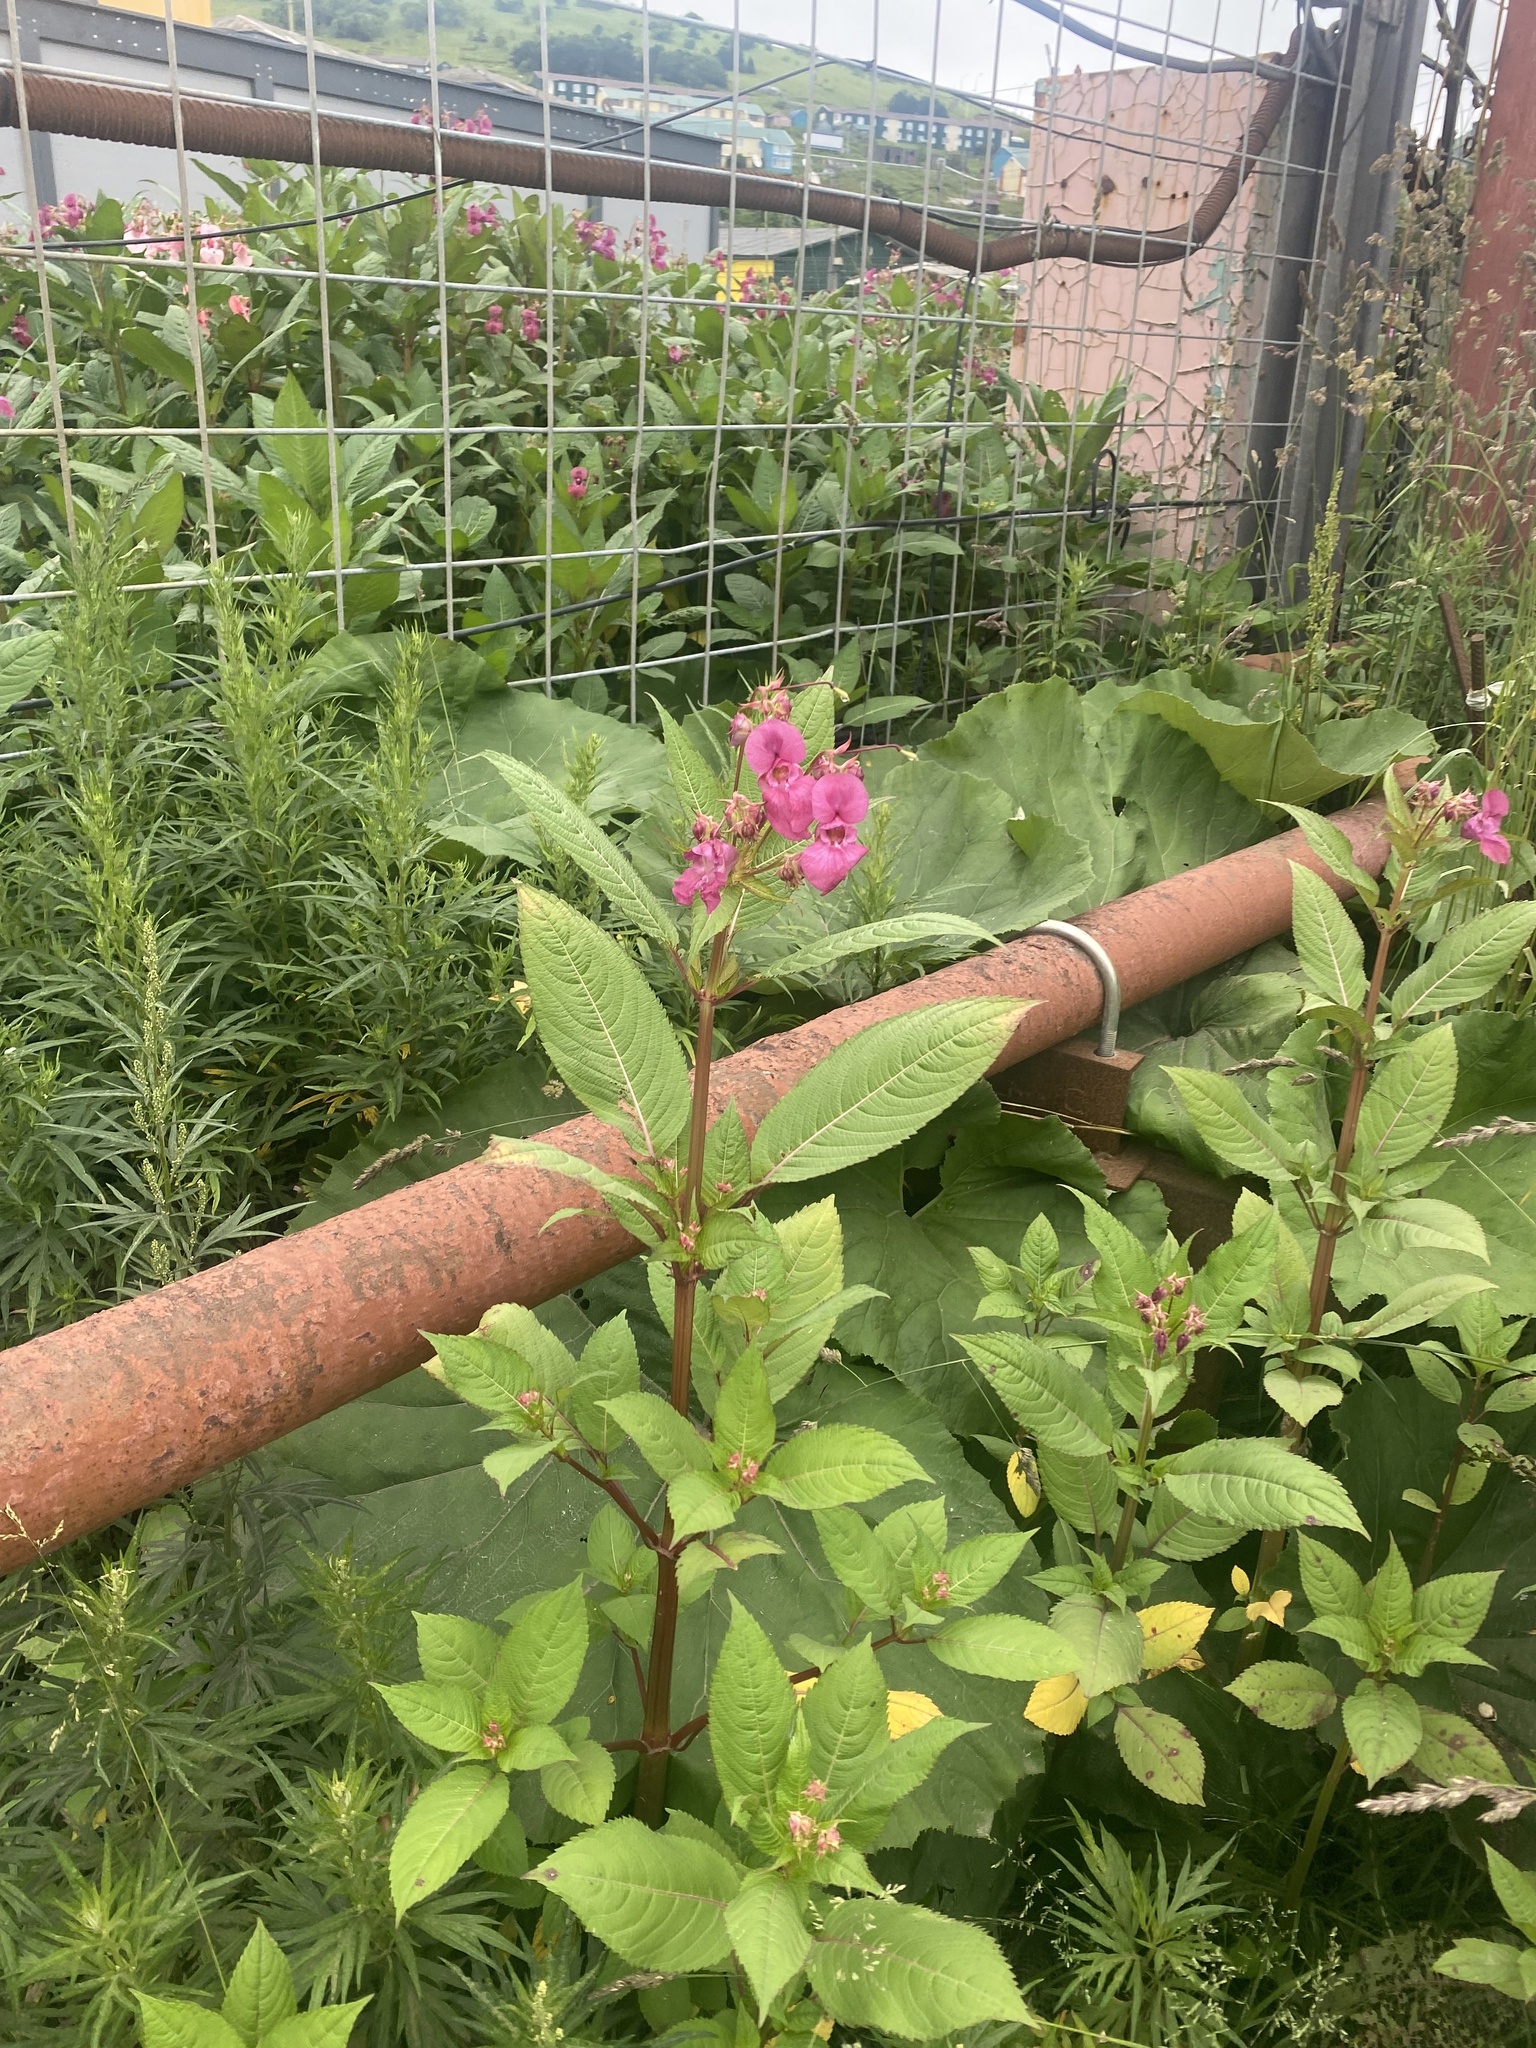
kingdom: Plantae
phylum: Tracheophyta
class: Magnoliopsida
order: Ericales
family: Balsaminaceae
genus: Impatiens
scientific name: Impatiens glandulifera
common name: Himalayan balsam
